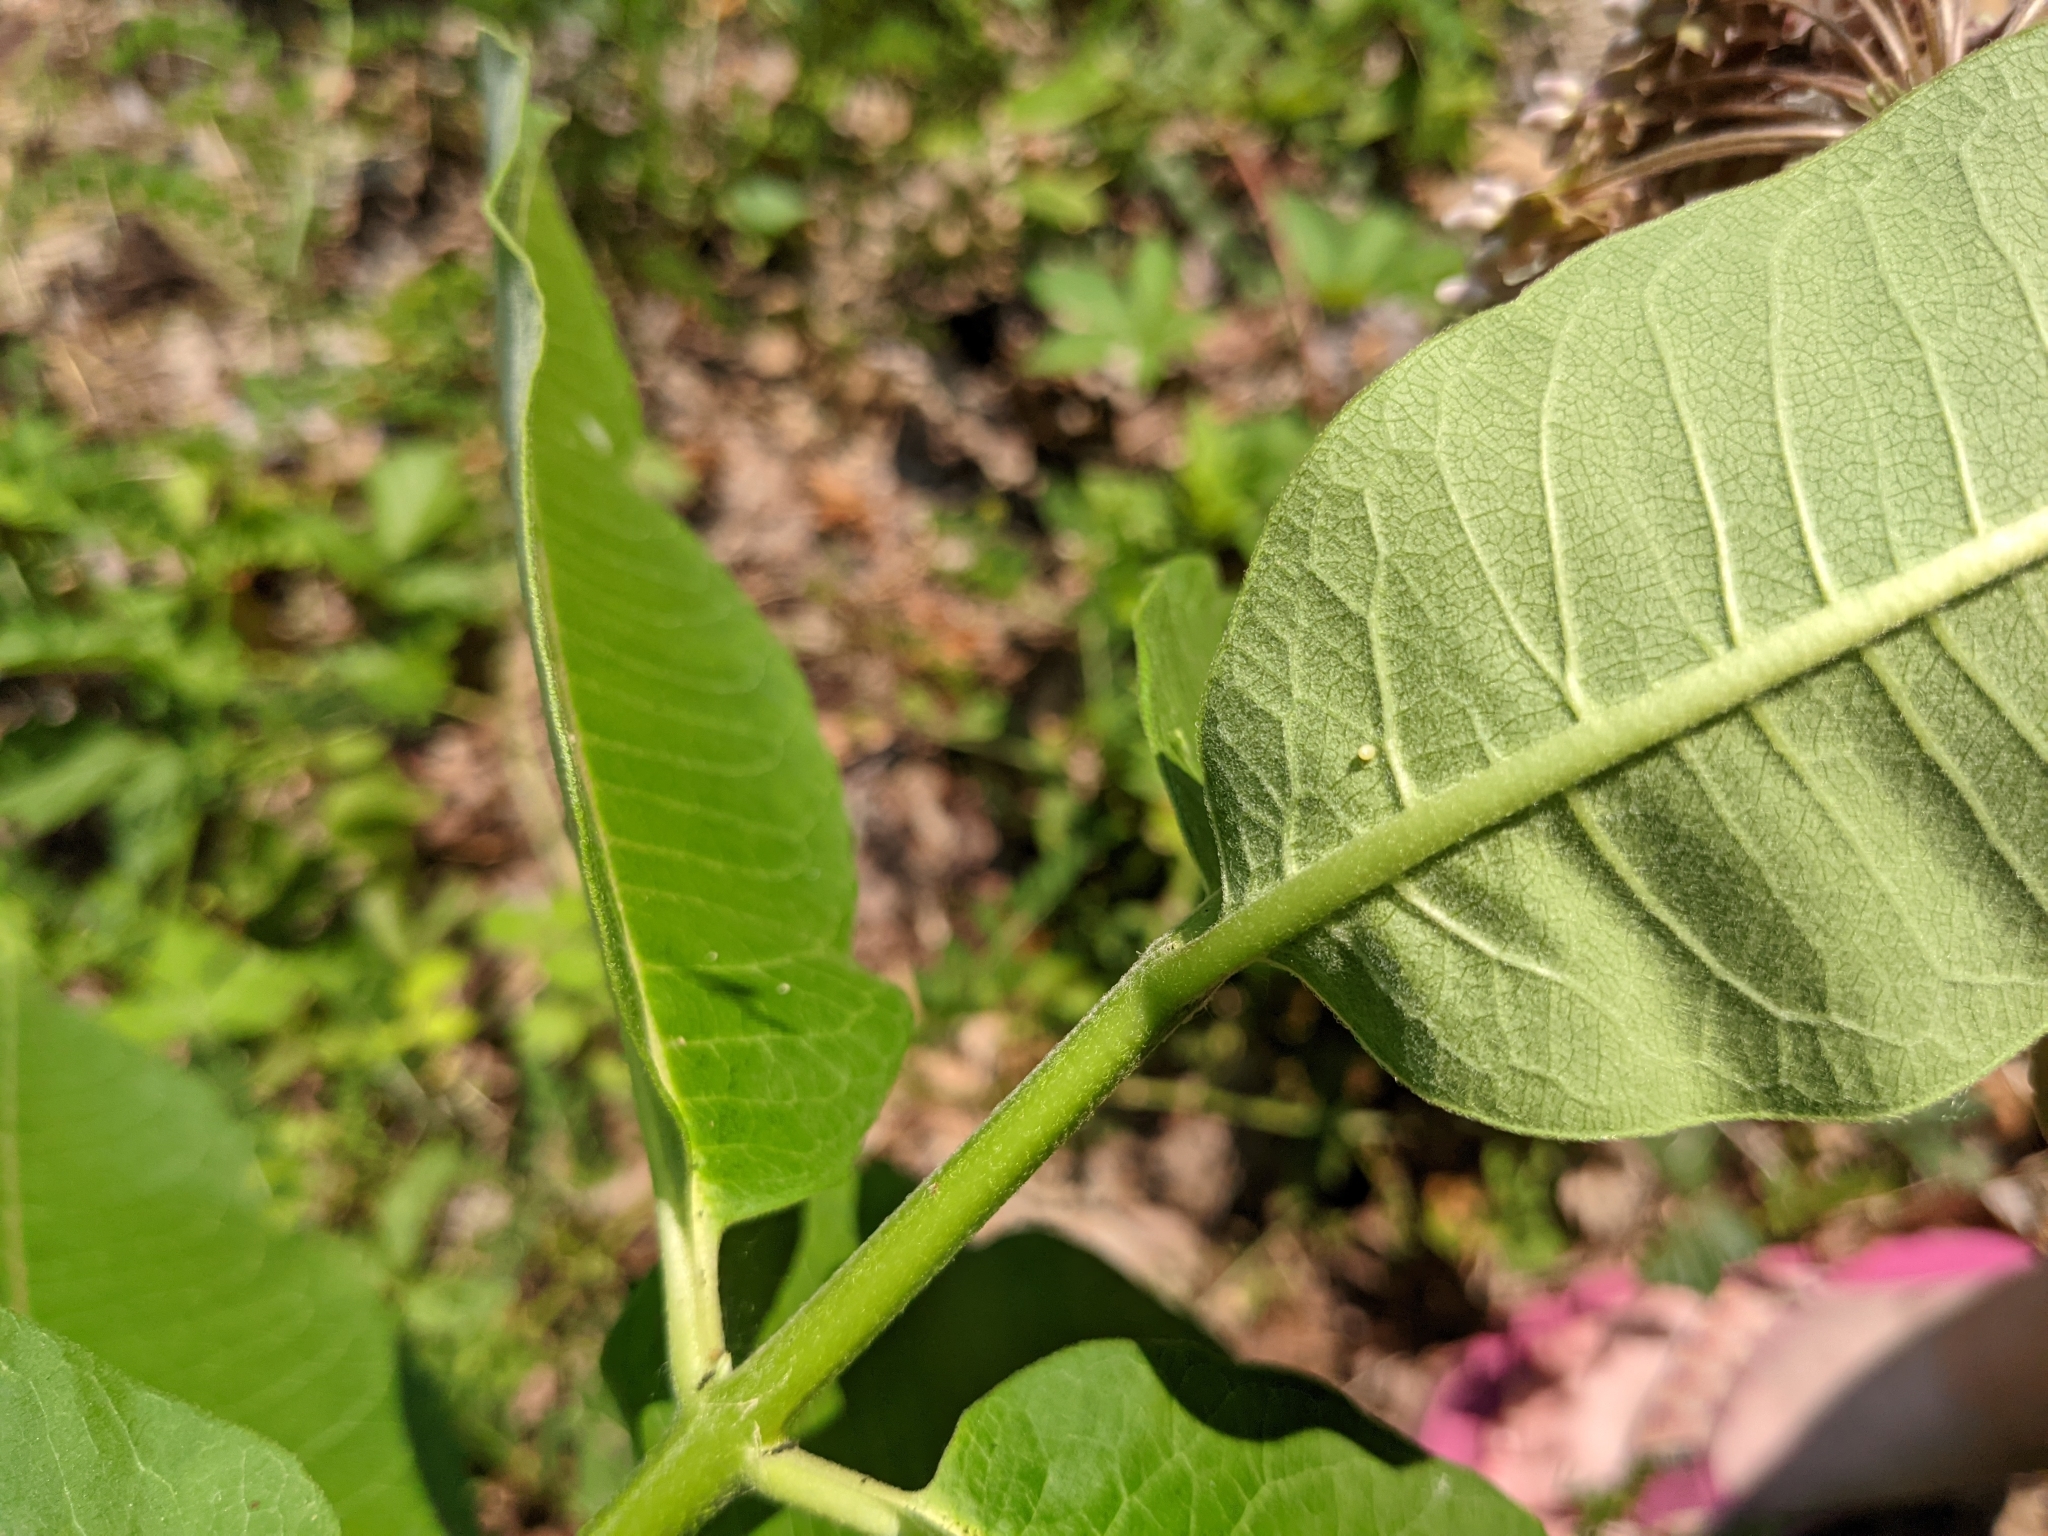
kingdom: Animalia
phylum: Arthropoda
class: Insecta
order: Lepidoptera
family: Nymphalidae
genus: Danaus
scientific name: Danaus plexippus
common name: Monarch
